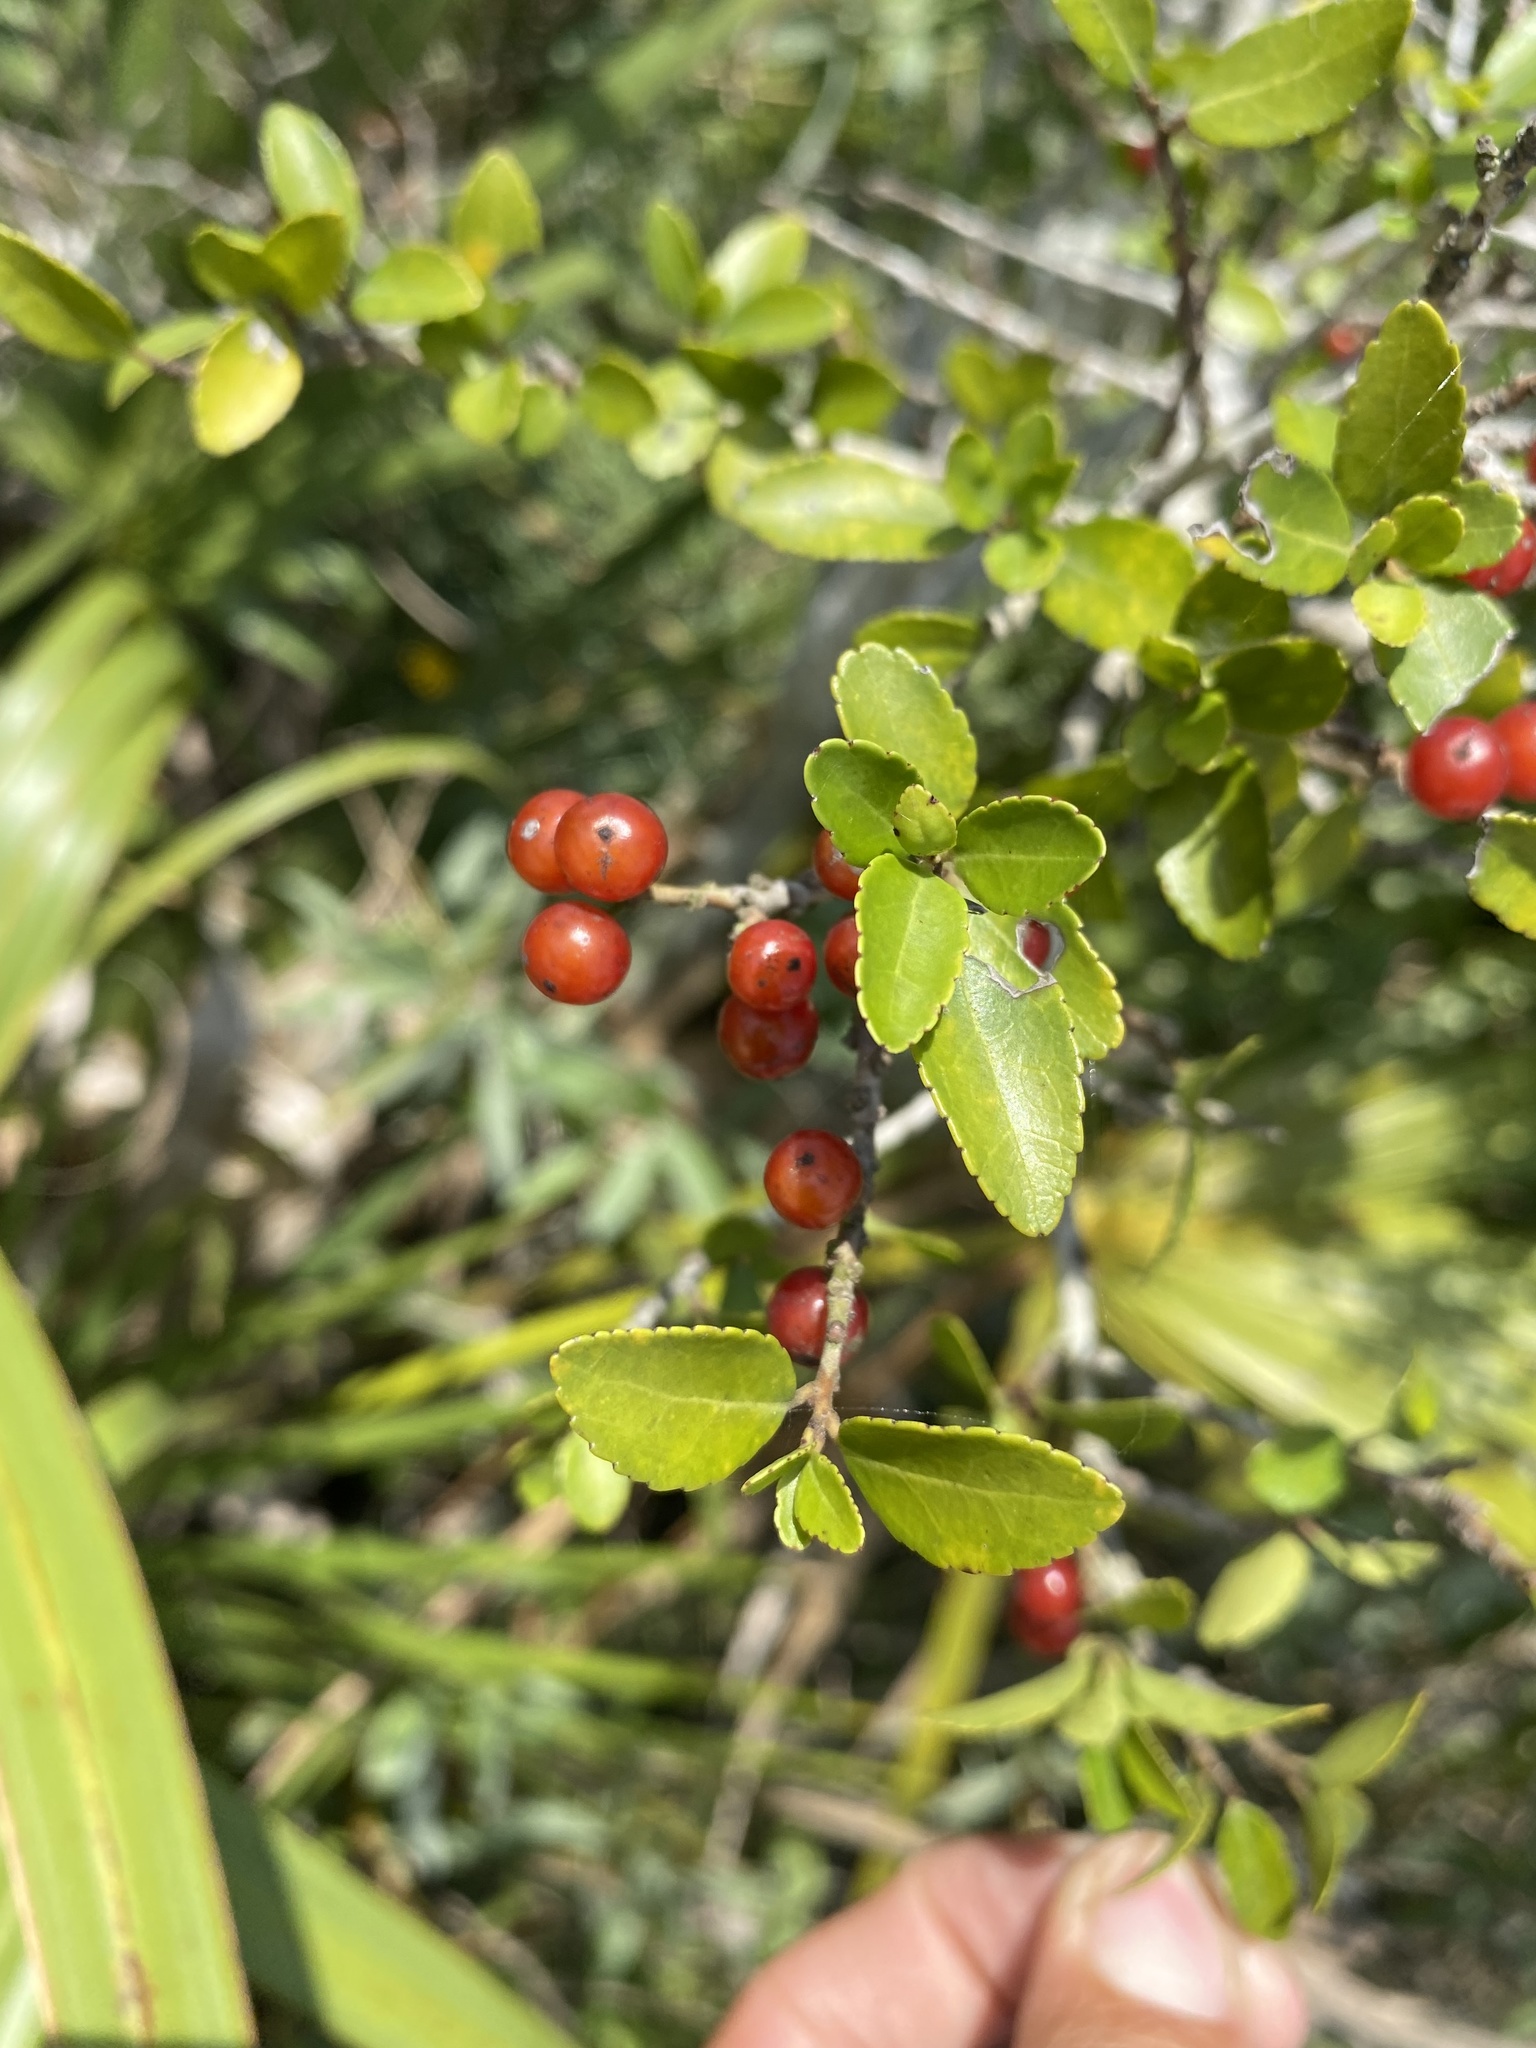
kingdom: Plantae
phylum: Tracheophyta
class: Magnoliopsida
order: Aquifoliales
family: Aquifoliaceae
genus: Ilex
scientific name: Ilex vomitoria
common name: Yaupon holly
